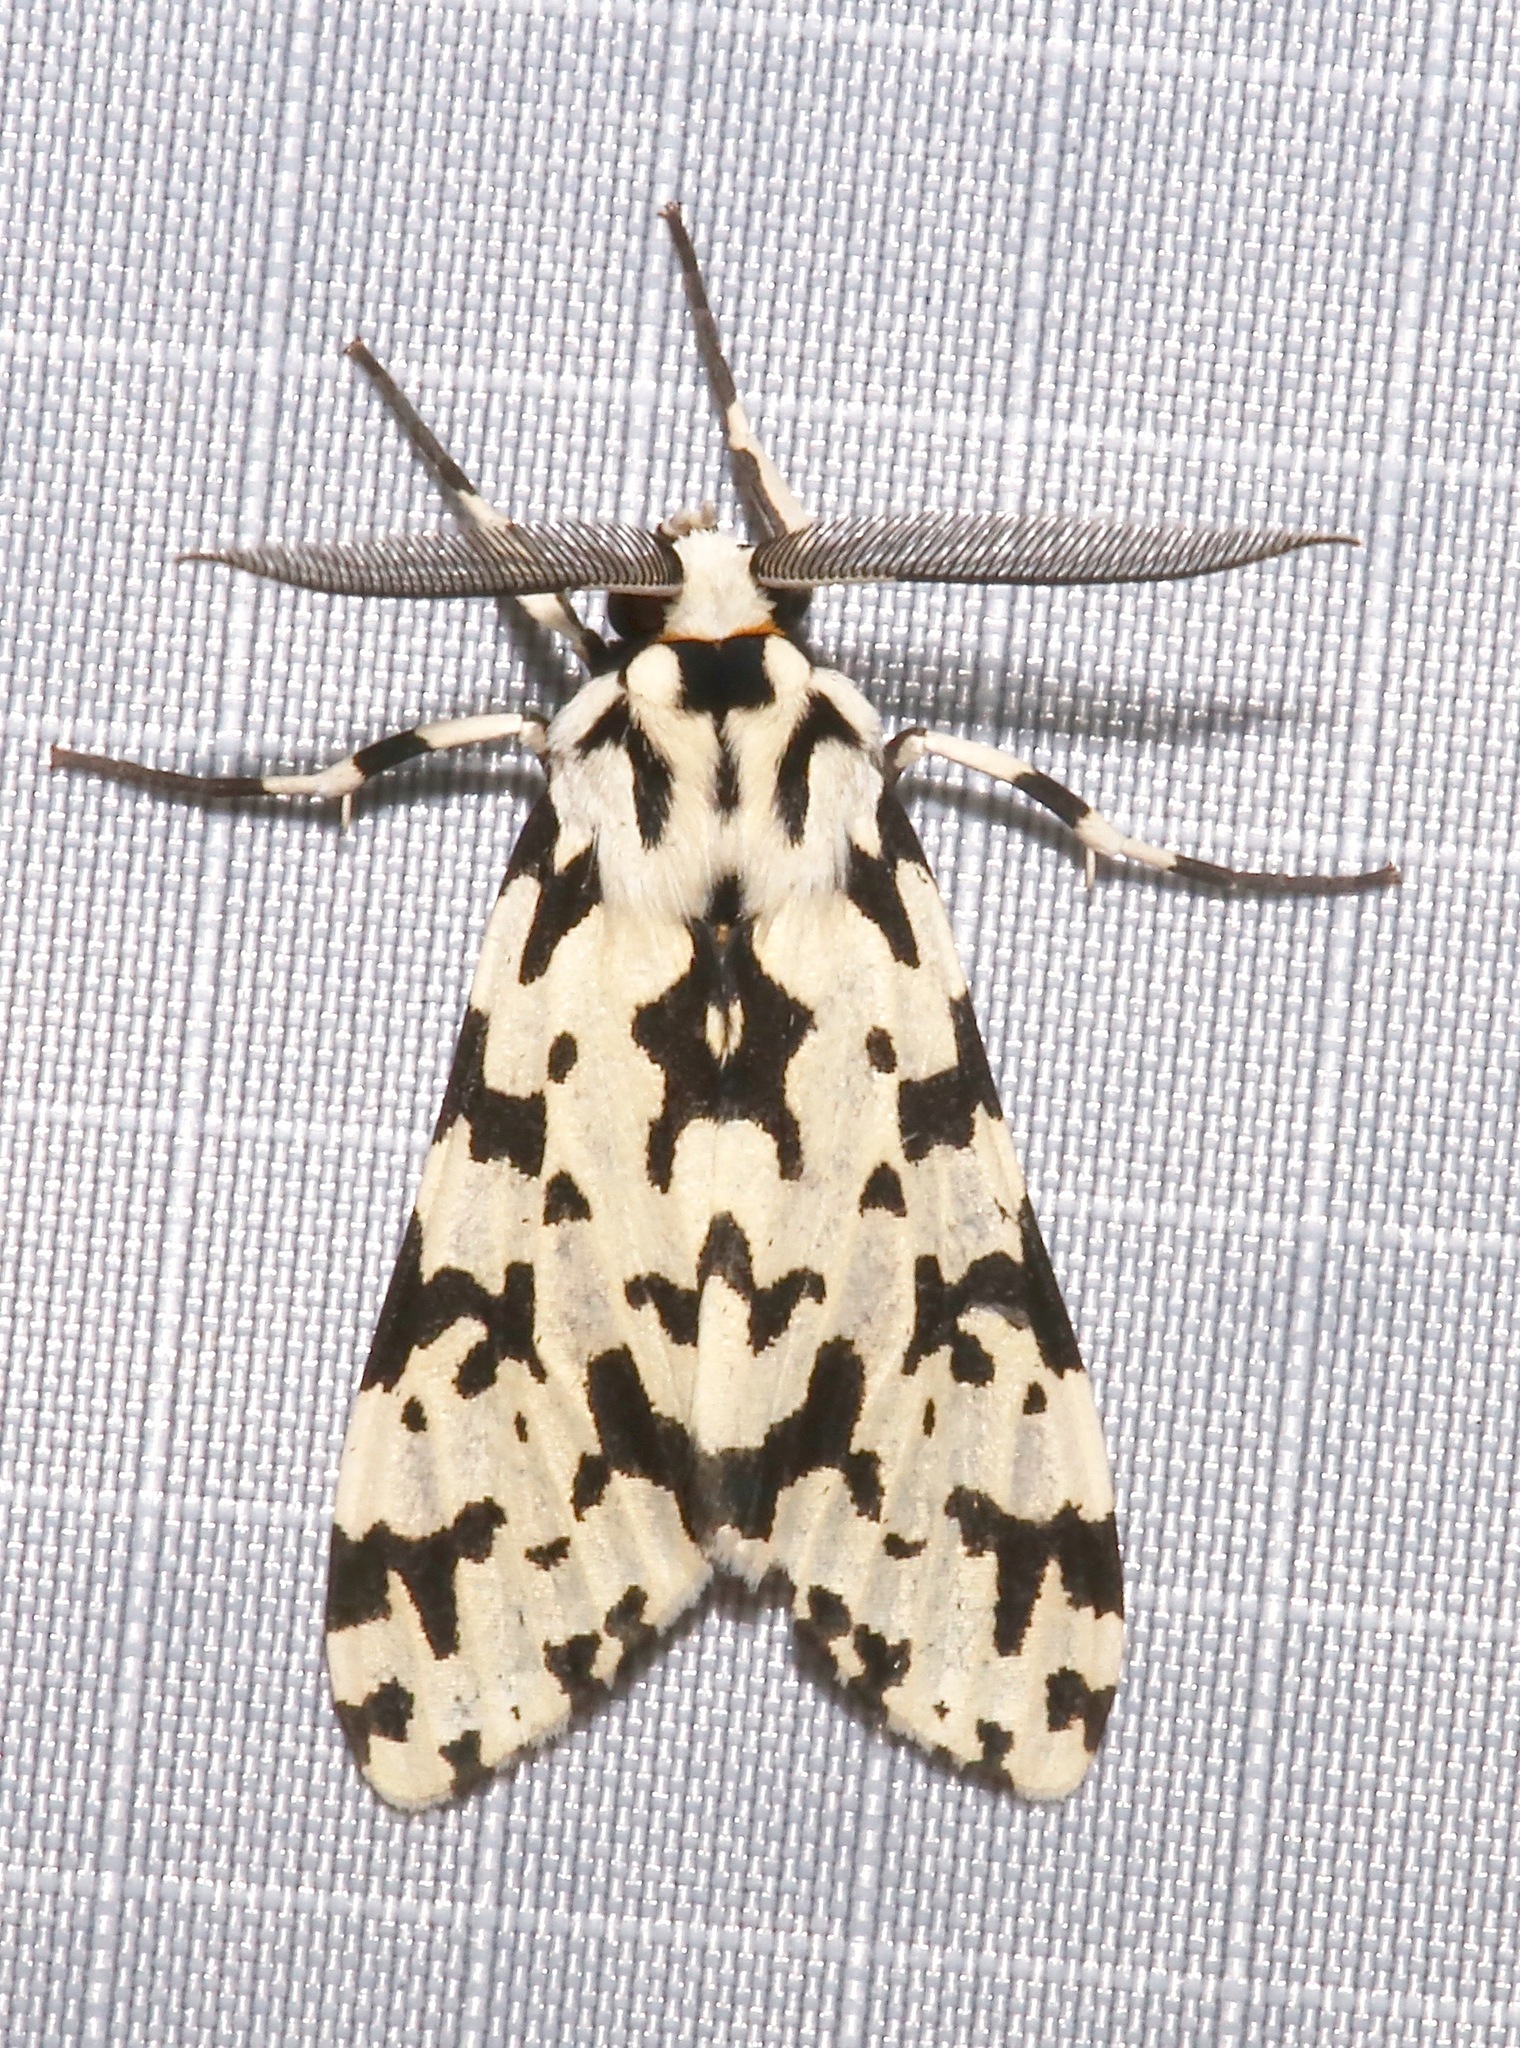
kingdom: Animalia
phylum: Arthropoda
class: Insecta
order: Lepidoptera
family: Erebidae
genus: Eucereon
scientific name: Eucereon tigrata
